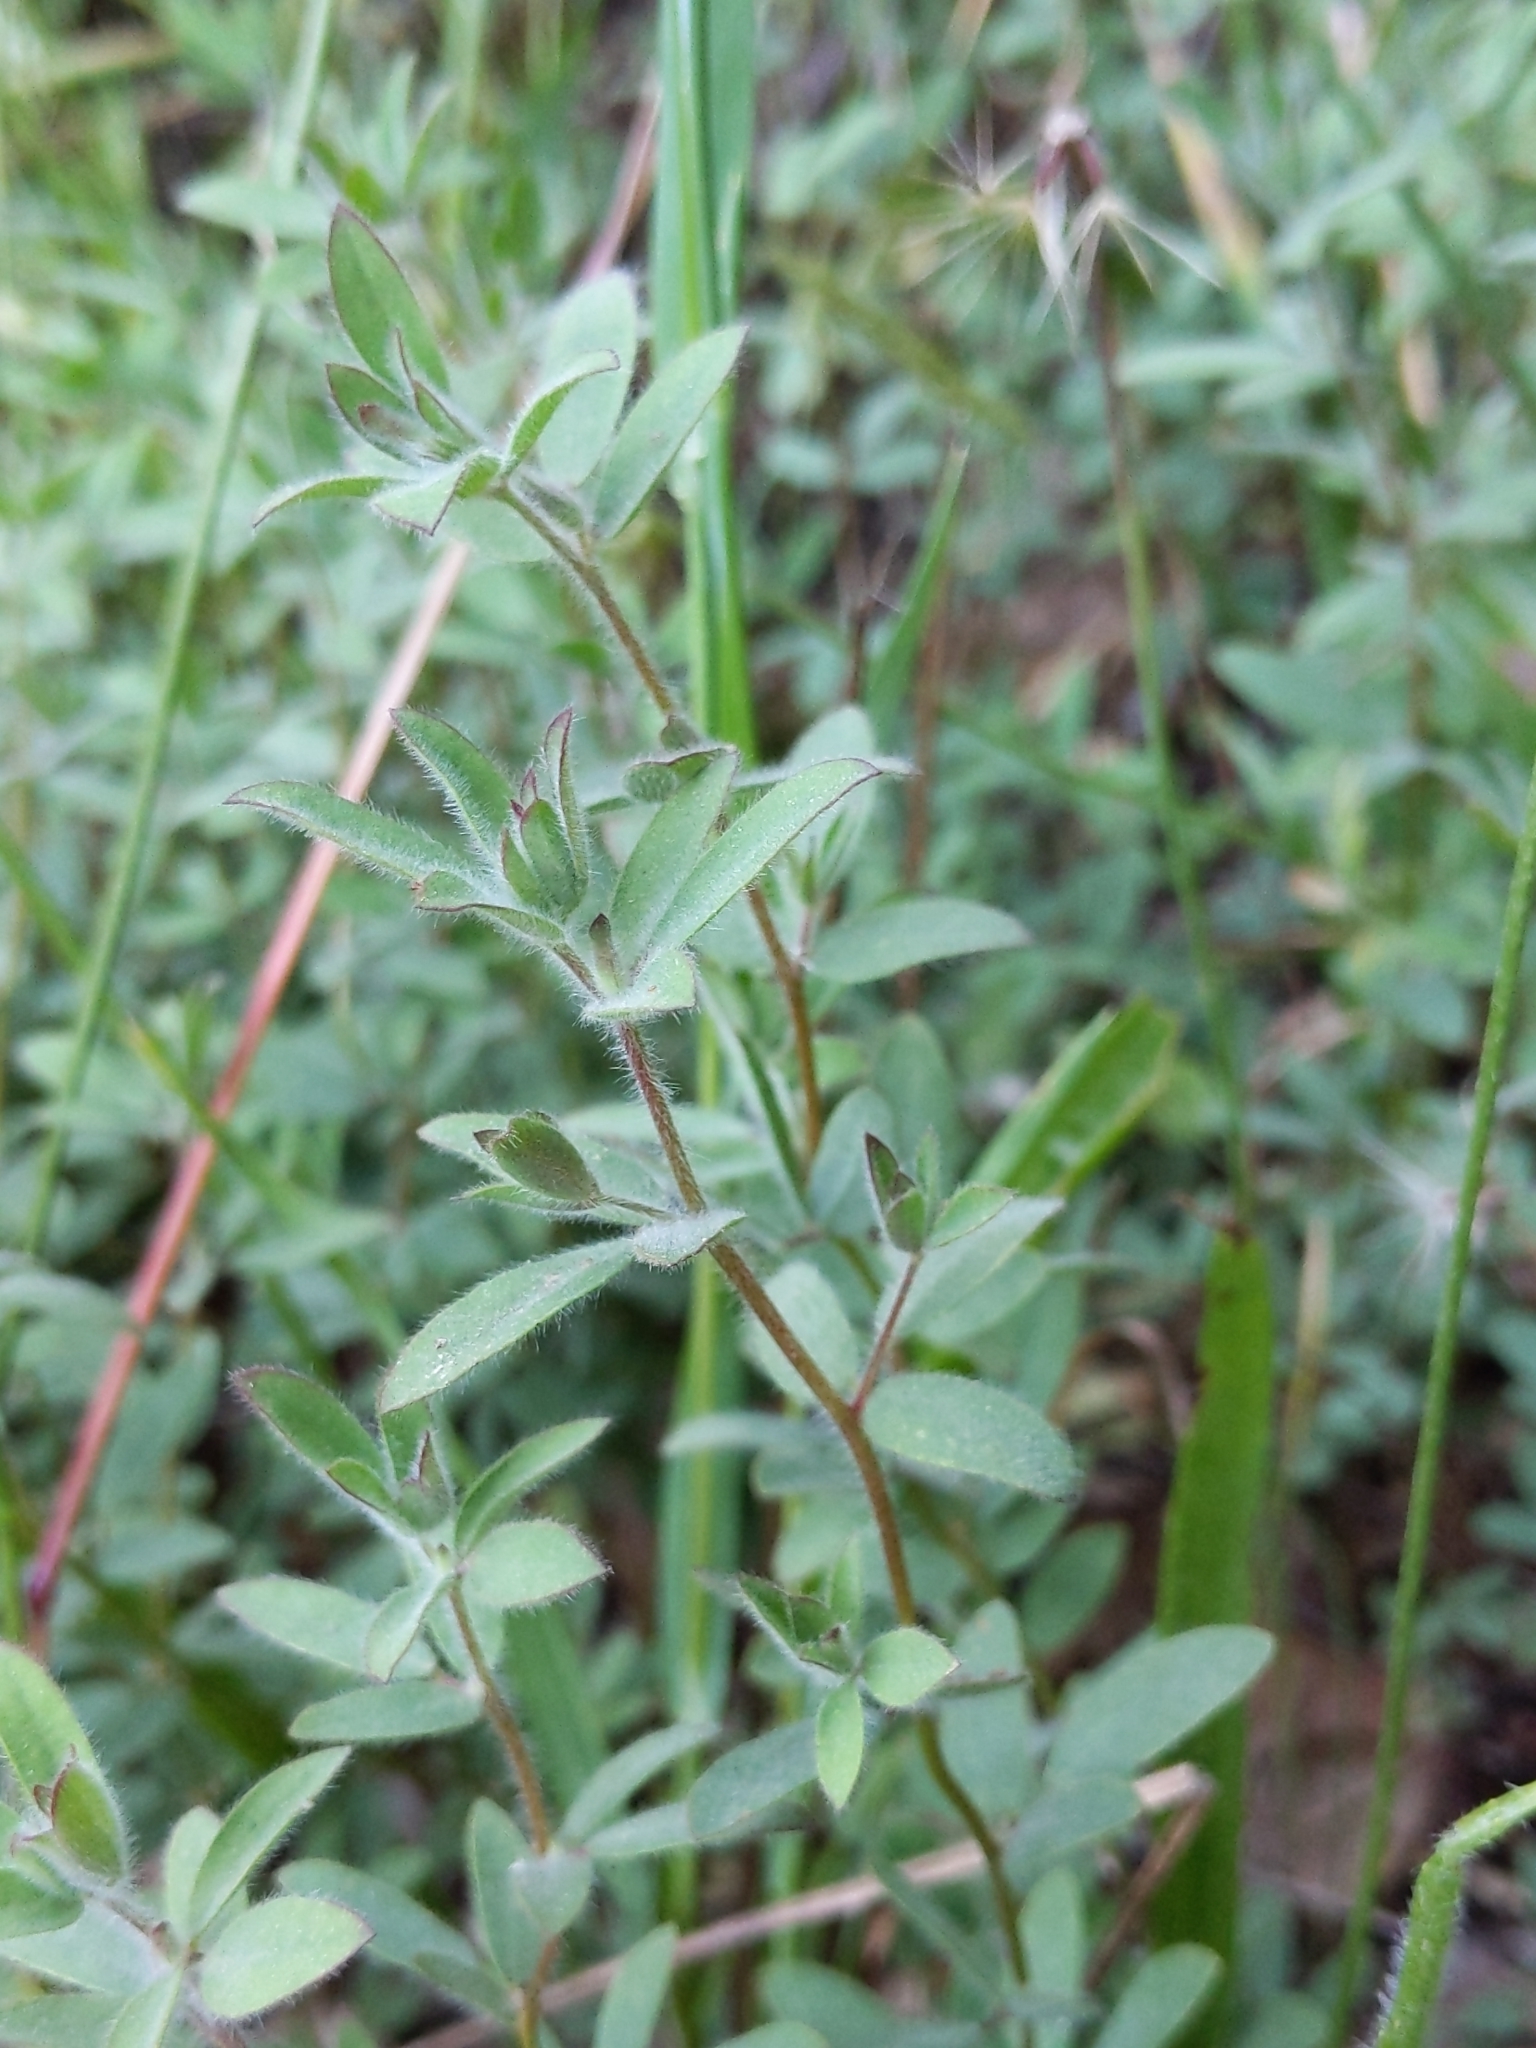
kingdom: Plantae
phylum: Tracheophyta
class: Magnoliopsida
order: Fabales
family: Fabaceae
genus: Acmispon
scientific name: Acmispon americanus
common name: American bird's-foot trefoil
